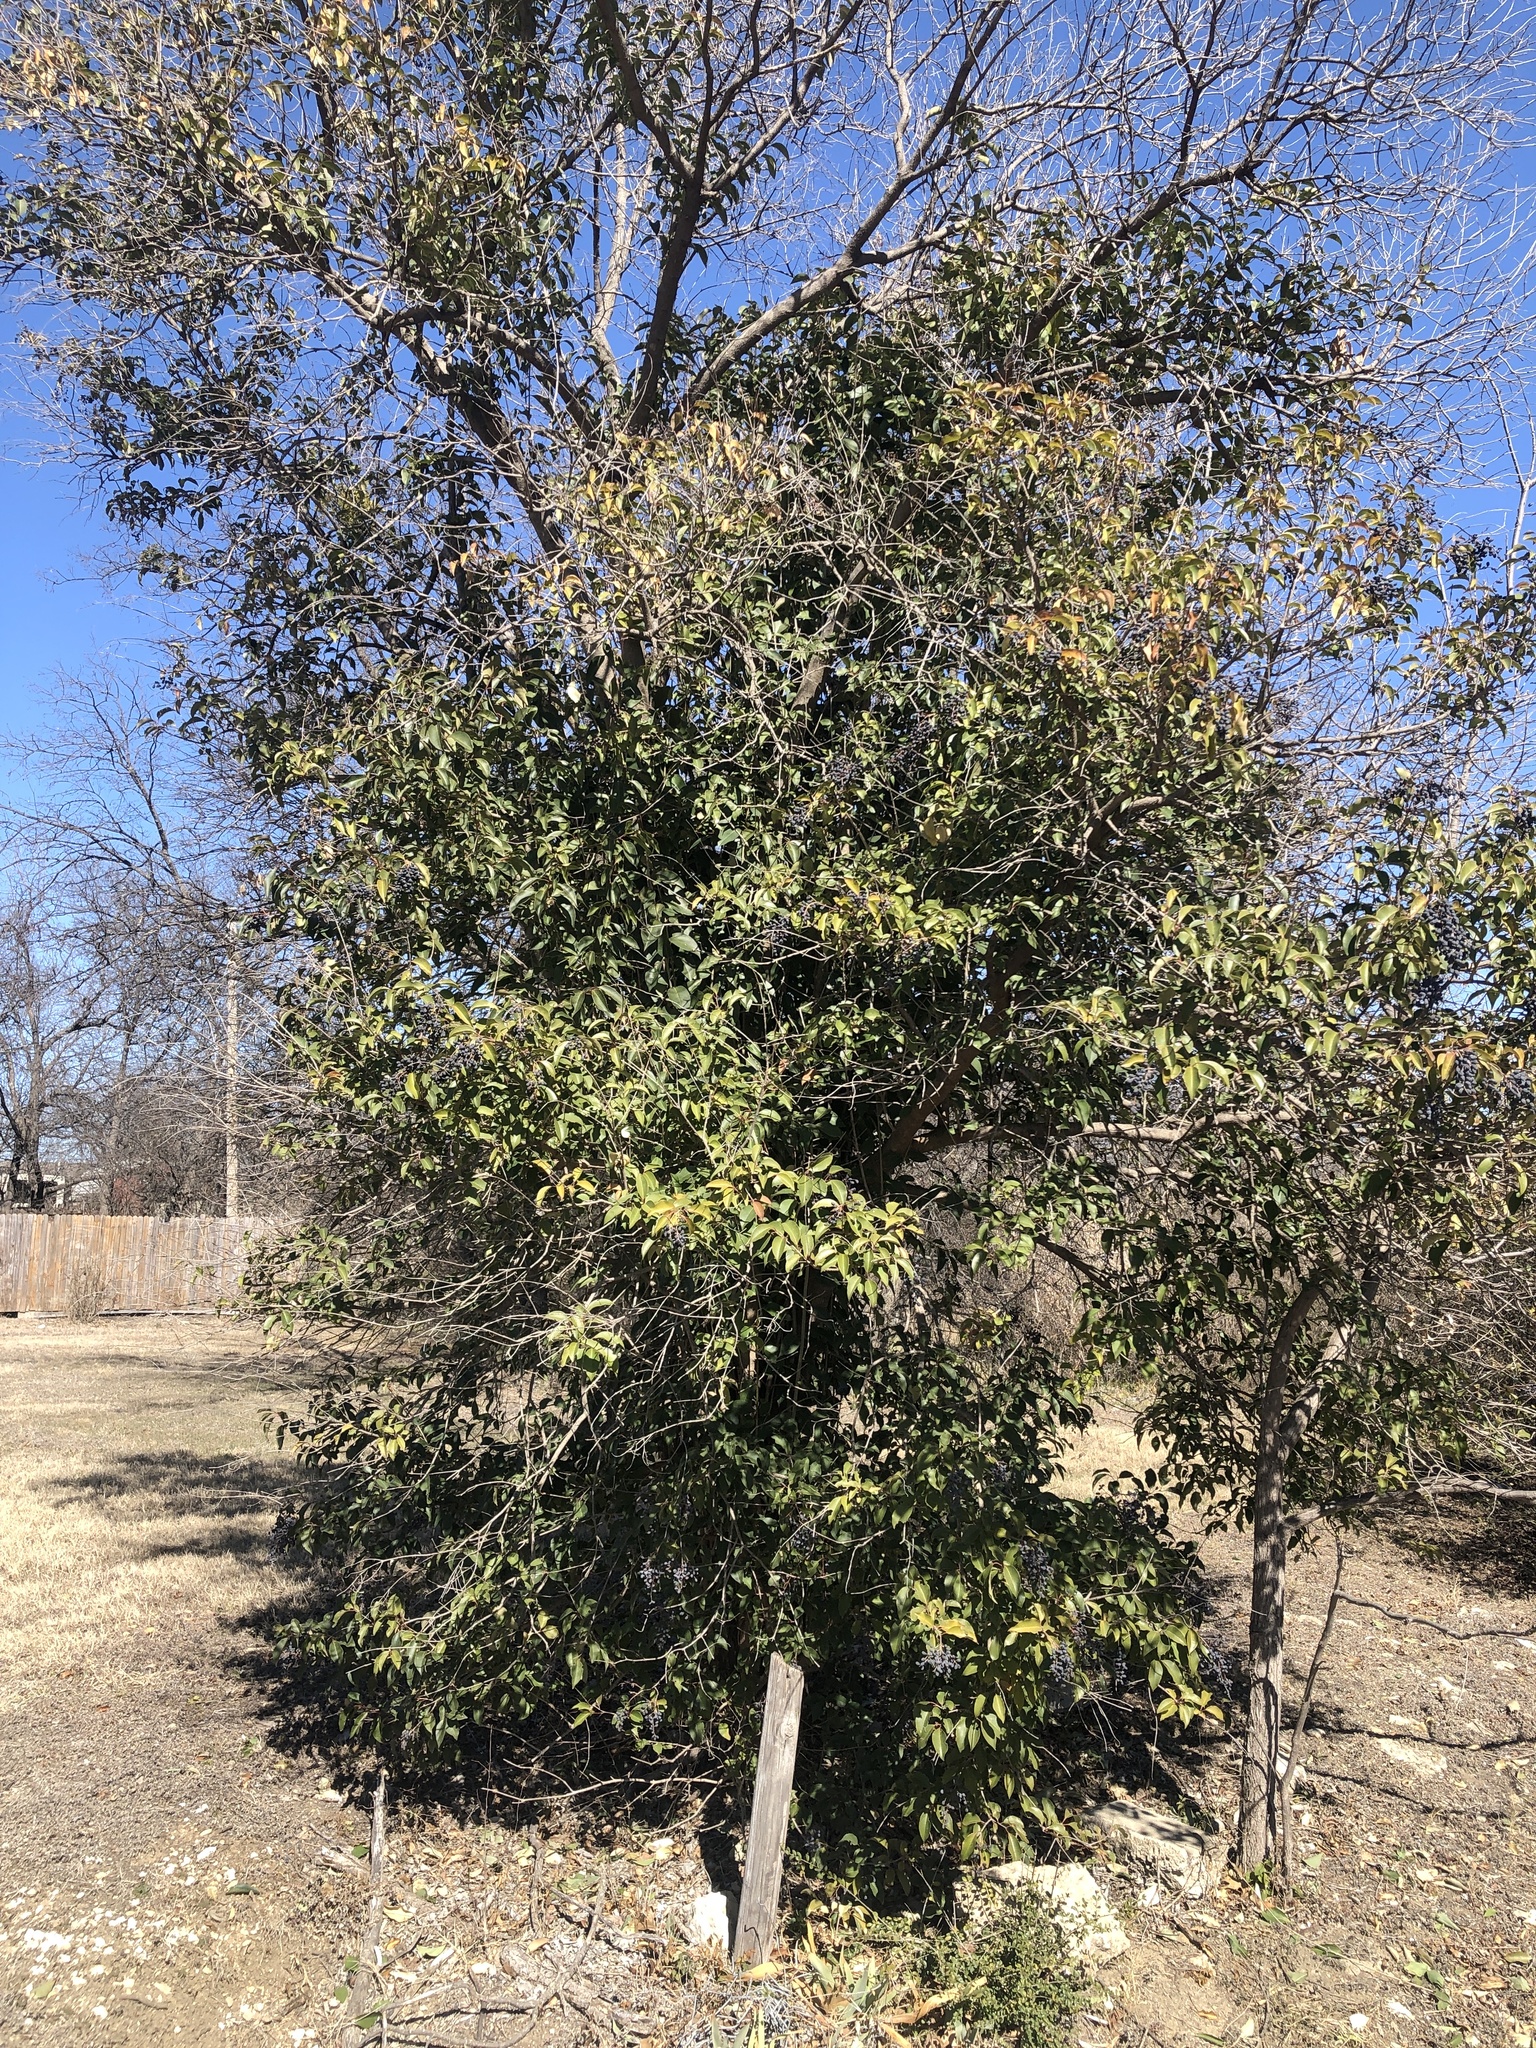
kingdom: Plantae
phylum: Tracheophyta
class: Magnoliopsida
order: Lamiales
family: Oleaceae
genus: Ligustrum
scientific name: Ligustrum lucidum
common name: Glossy privet
